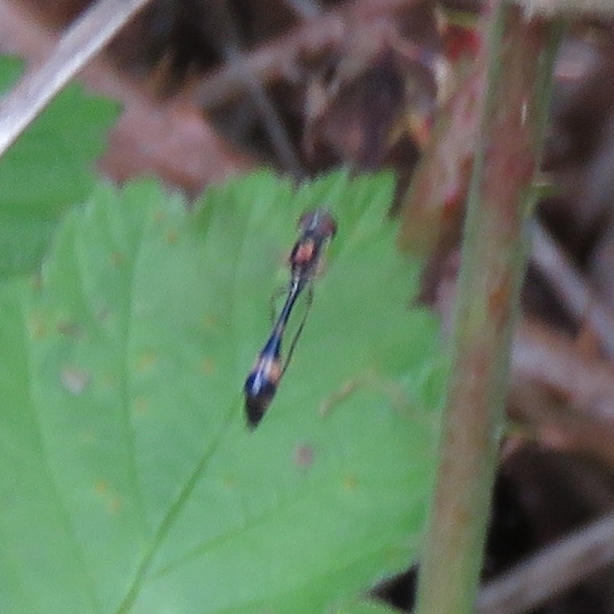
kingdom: Animalia
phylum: Arthropoda
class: Insecta
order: Diptera
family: Syrphidae
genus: Baccha
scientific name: Baccha elongata
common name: Common dainty
